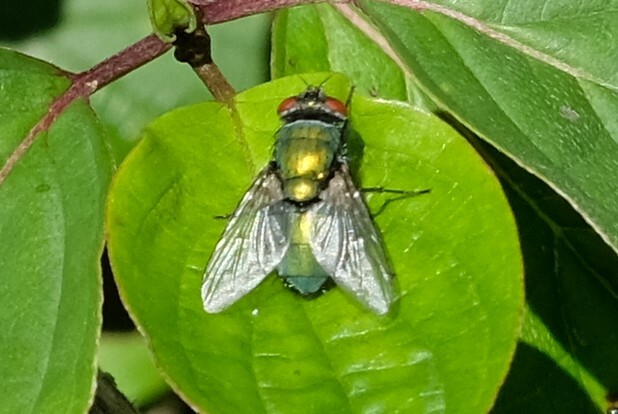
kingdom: Animalia
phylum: Arthropoda
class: Insecta
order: Diptera
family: Calliphoridae
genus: Lucilia
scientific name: Lucilia
